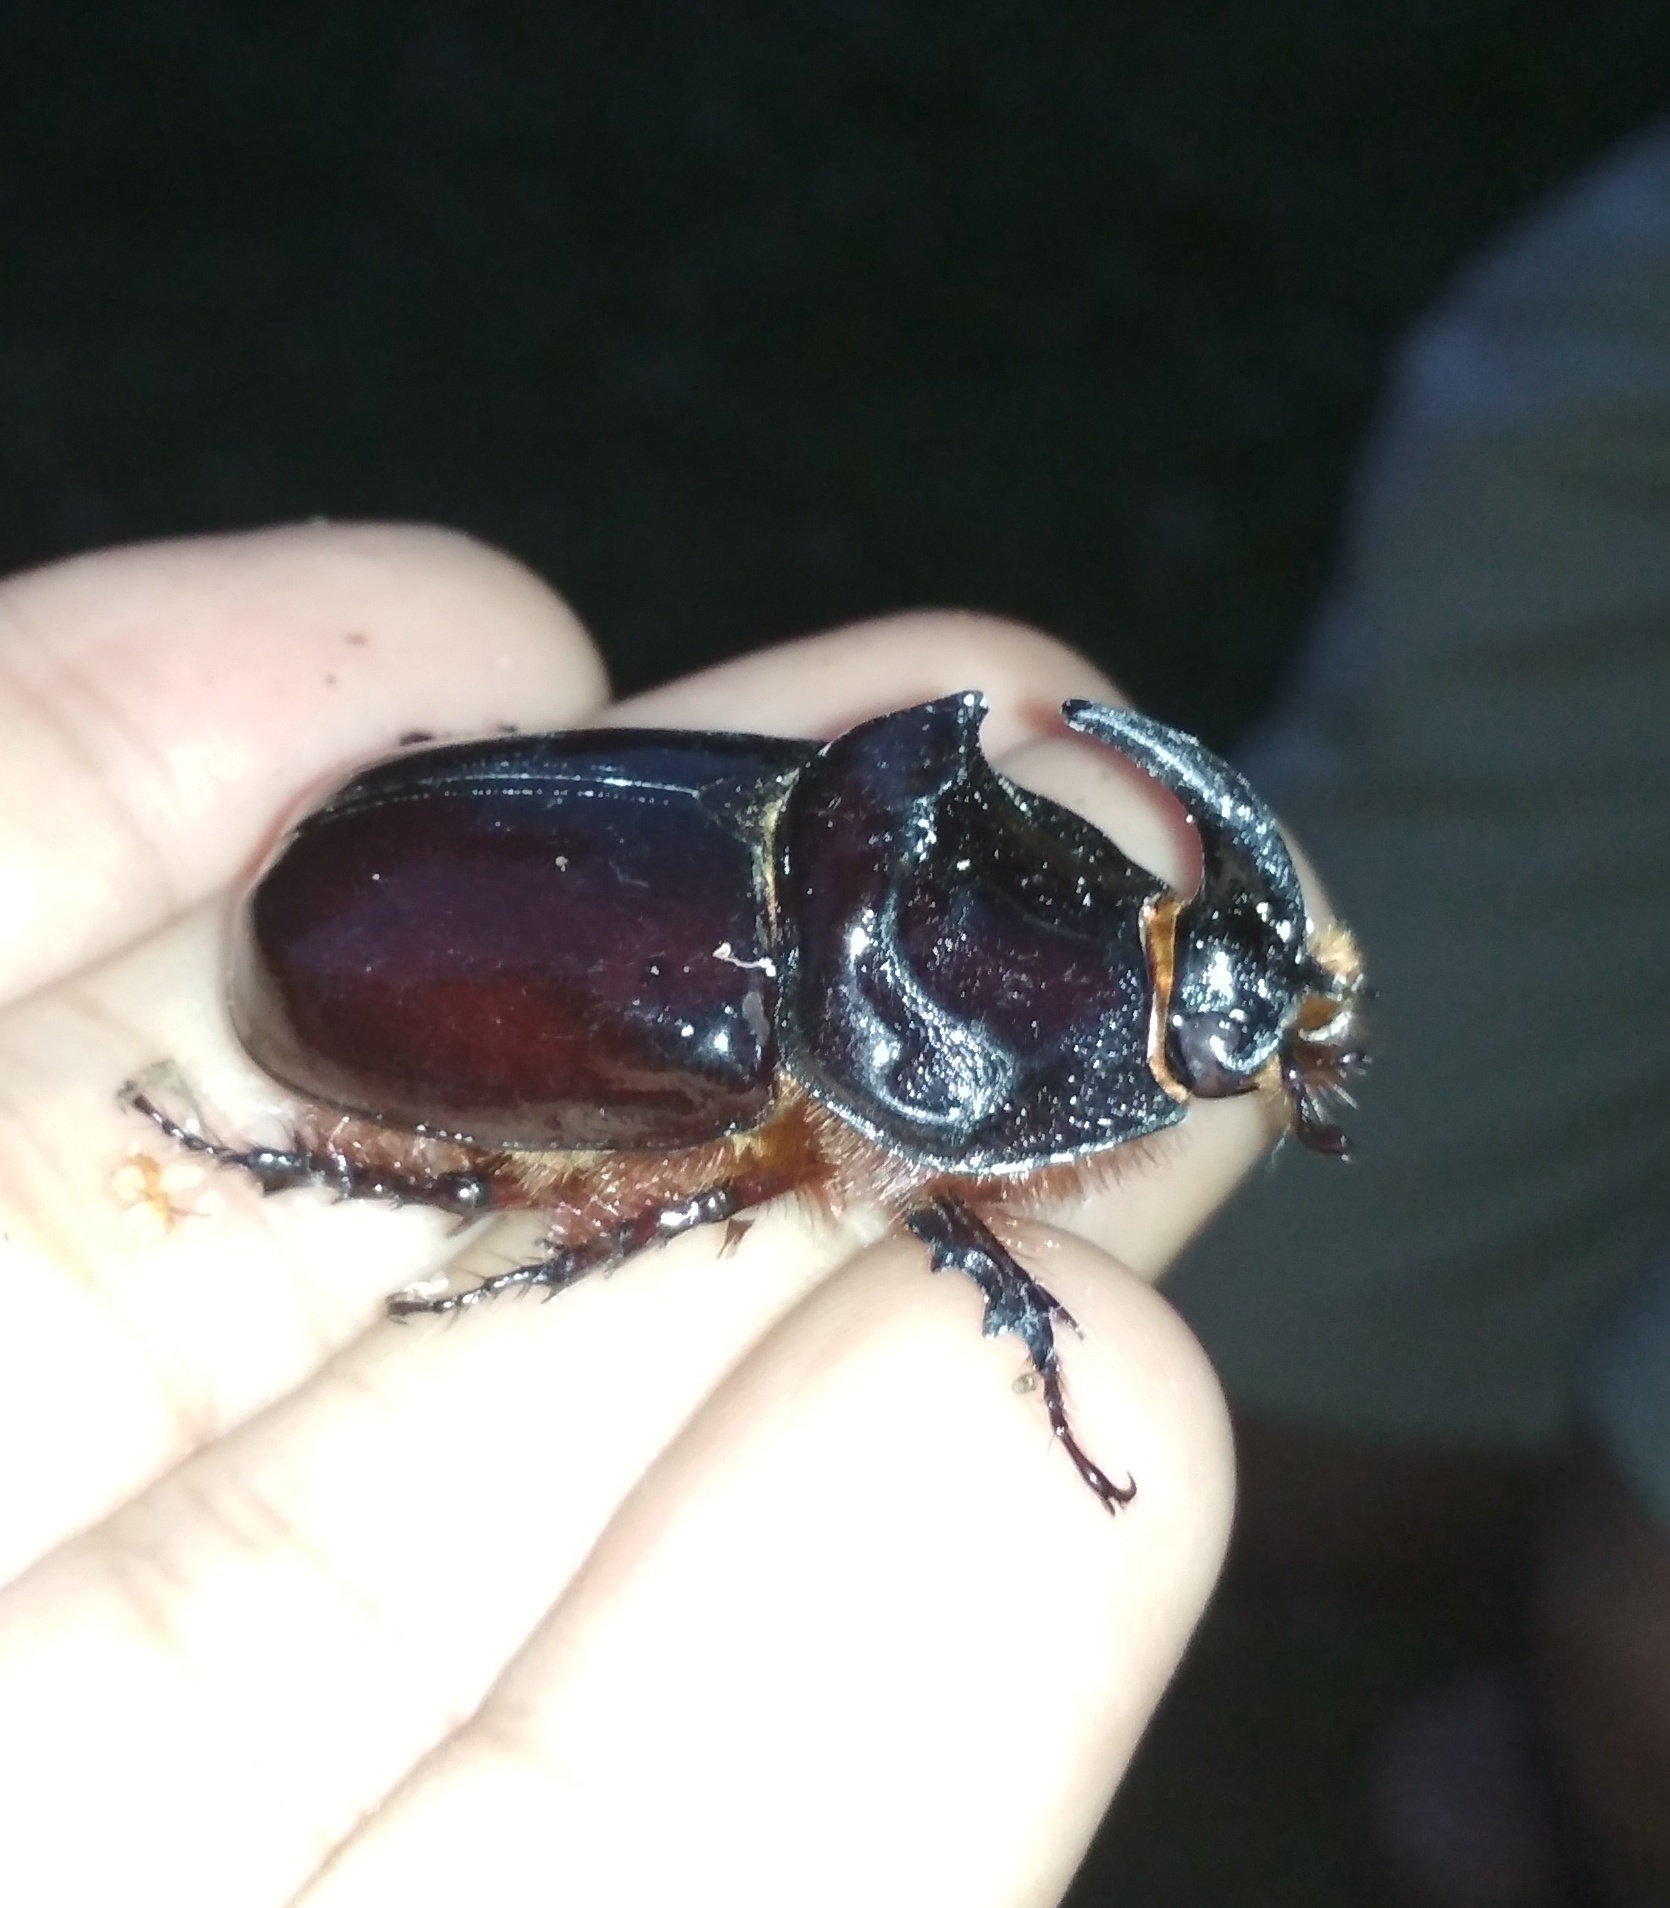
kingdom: Animalia
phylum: Arthropoda
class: Insecta
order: Coleoptera
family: Scarabaeidae
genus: Oryctes
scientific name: Oryctes nasicornis
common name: European rhinoceros beetle
